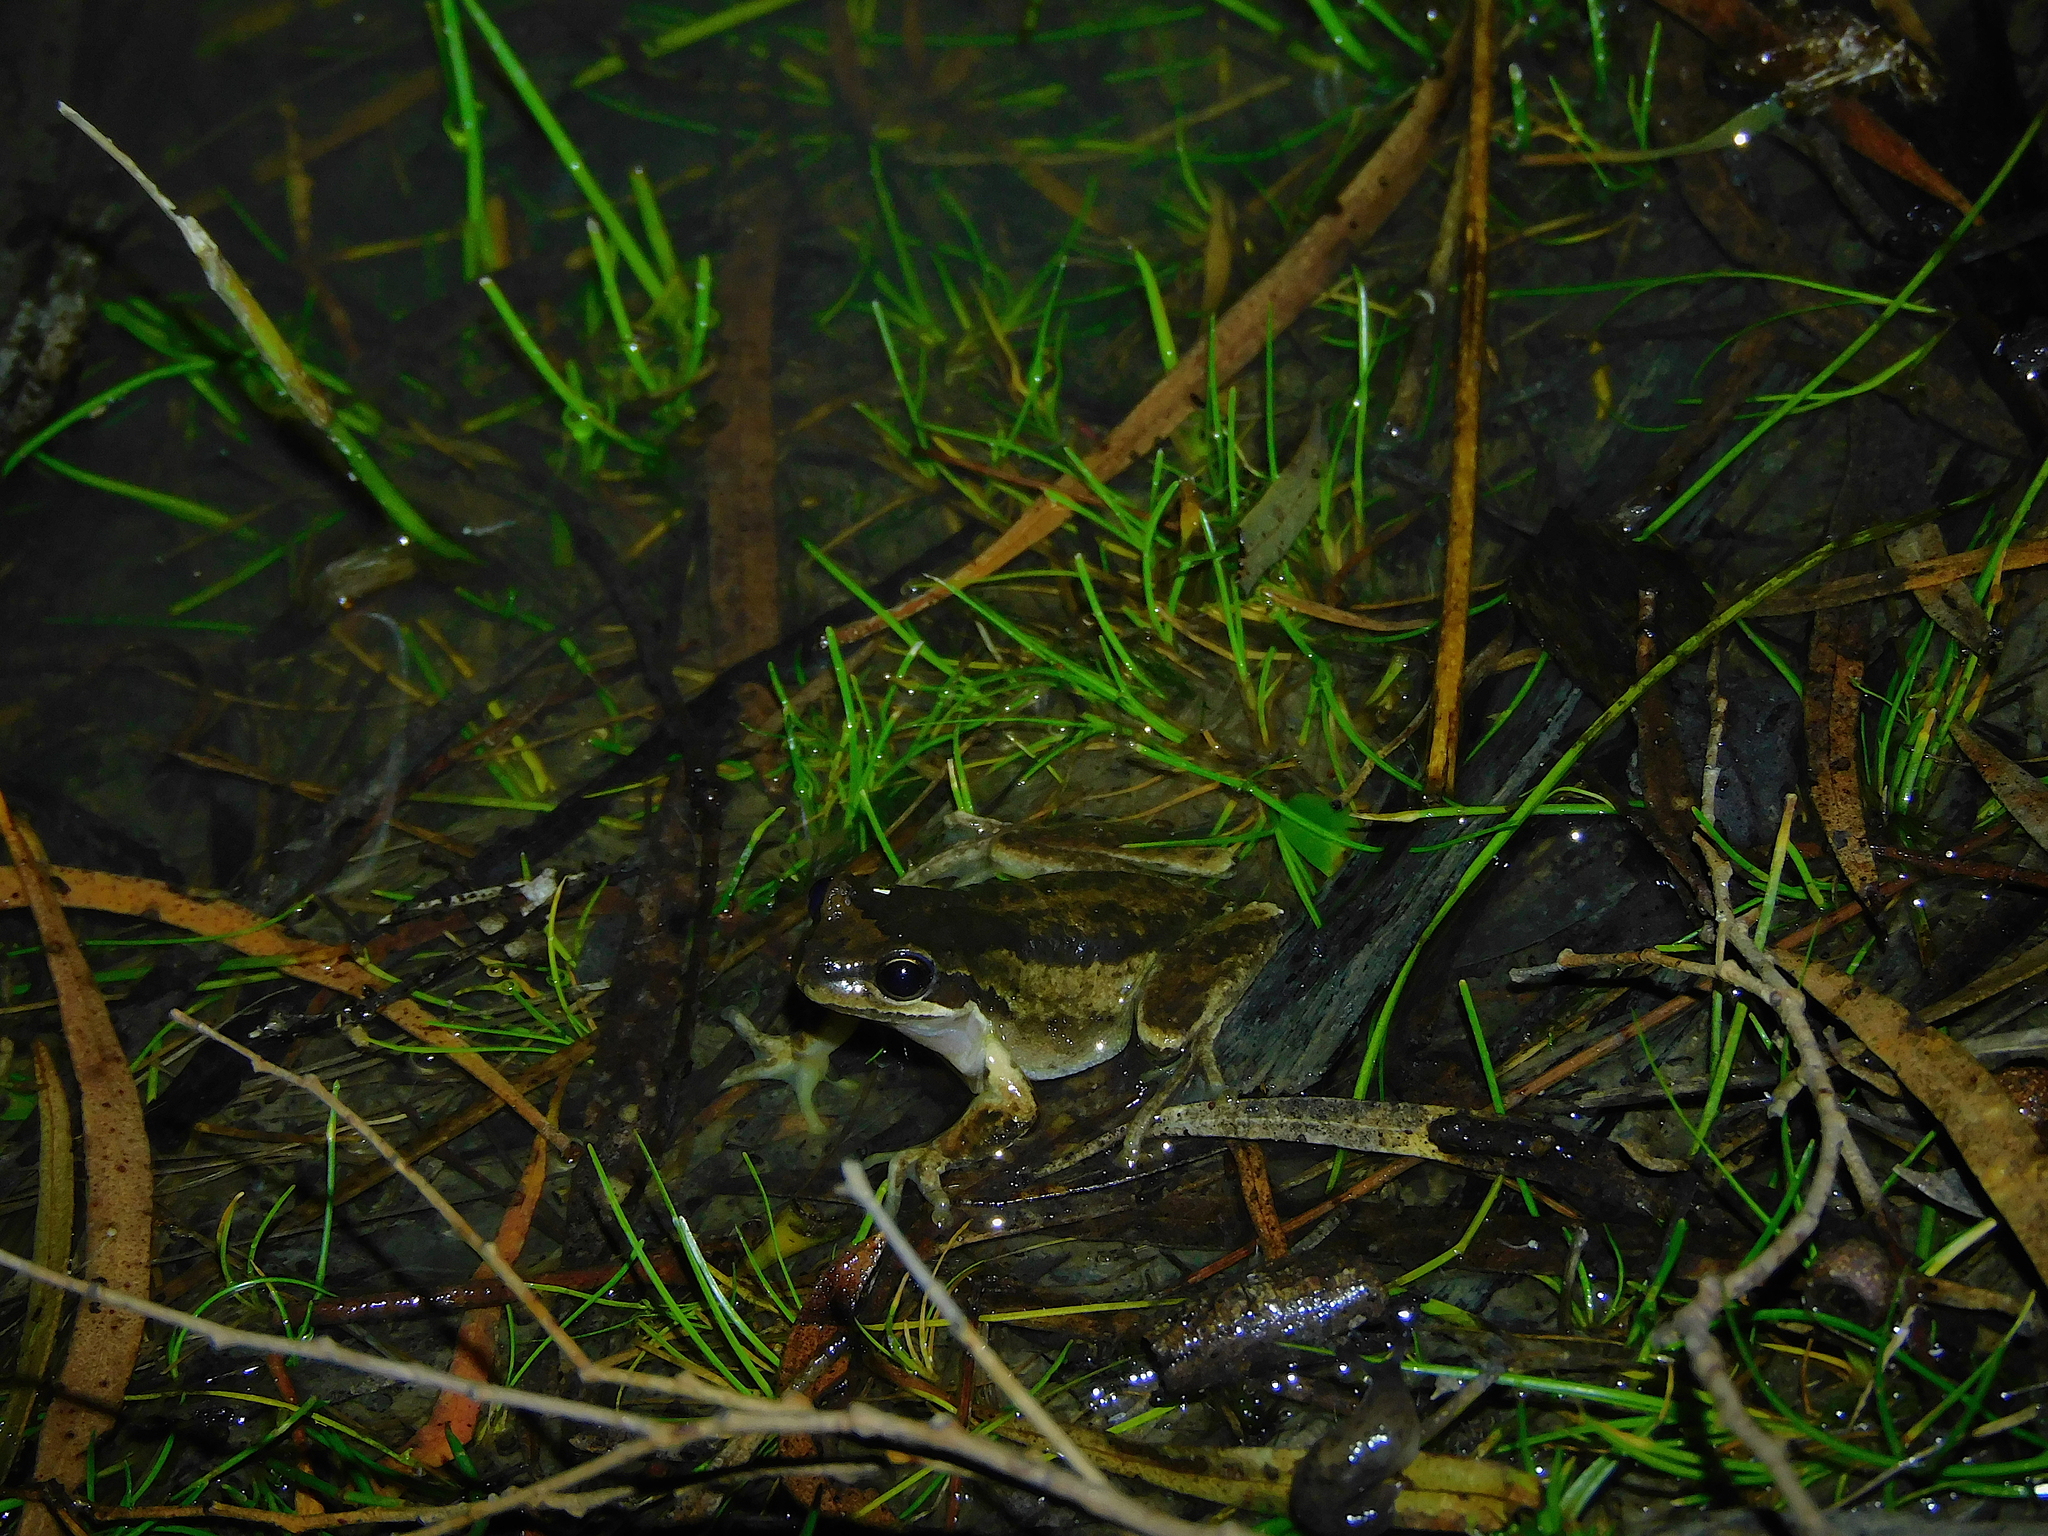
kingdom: Animalia
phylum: Chordata
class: Amphibia
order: Anura
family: Pelodryadidae
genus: Litoria
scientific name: Litoria ewingii
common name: Southern brown tree frog
